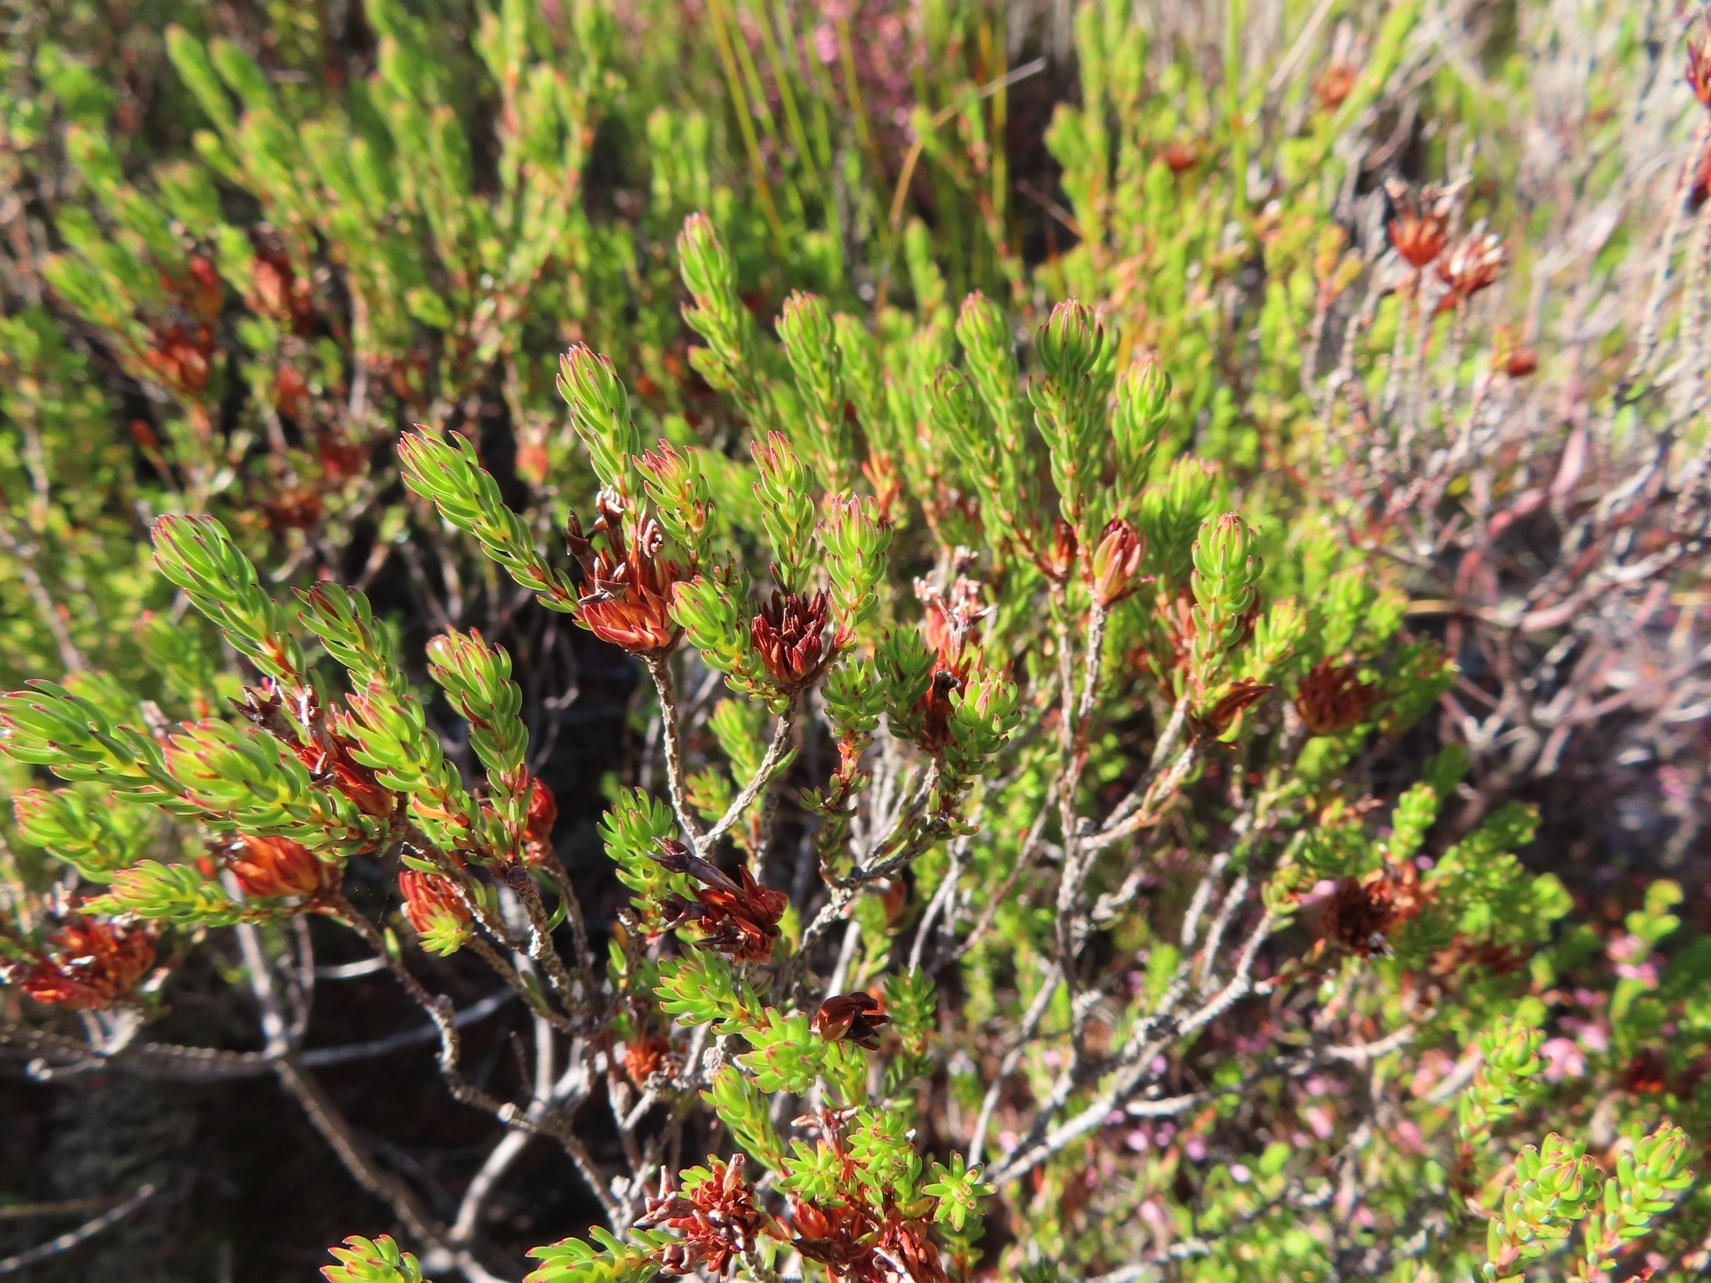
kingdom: Plantae
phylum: Tracheophyta
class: Magnoliopsida
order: Ericales
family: Ericaceae
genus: Erica
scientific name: Erica fastigiata
